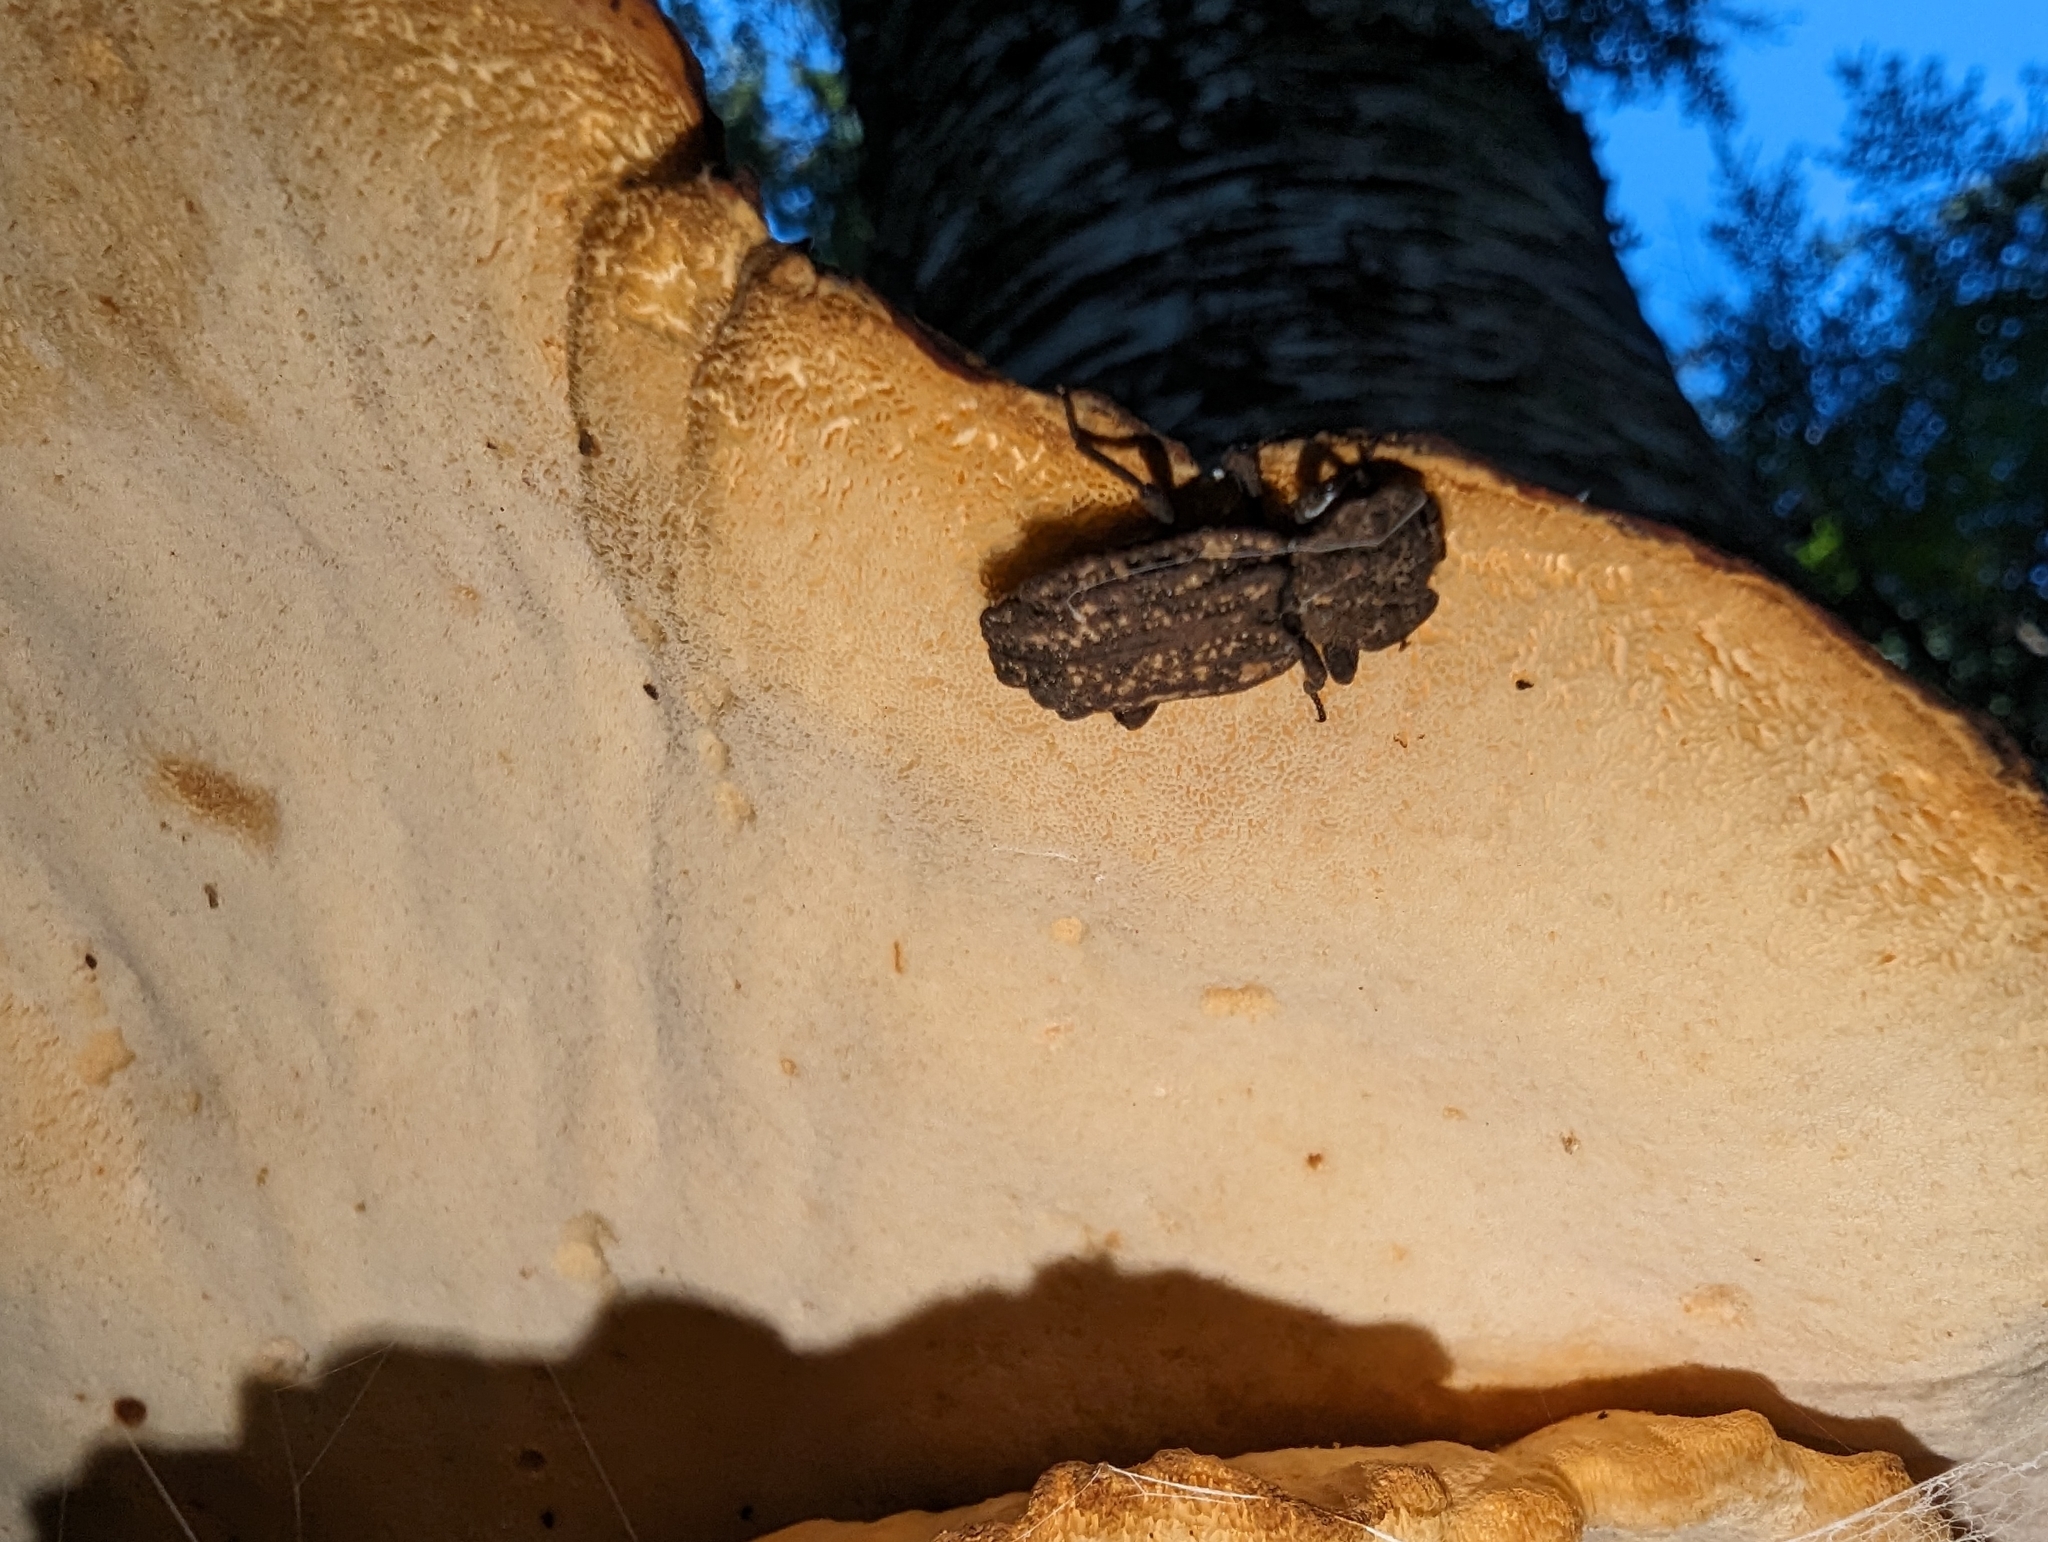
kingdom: Animalia
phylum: Arthropoda
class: Insecta
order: Coleoptera
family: Zopheridae
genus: Phellopsis
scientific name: Phellopsis porcata
